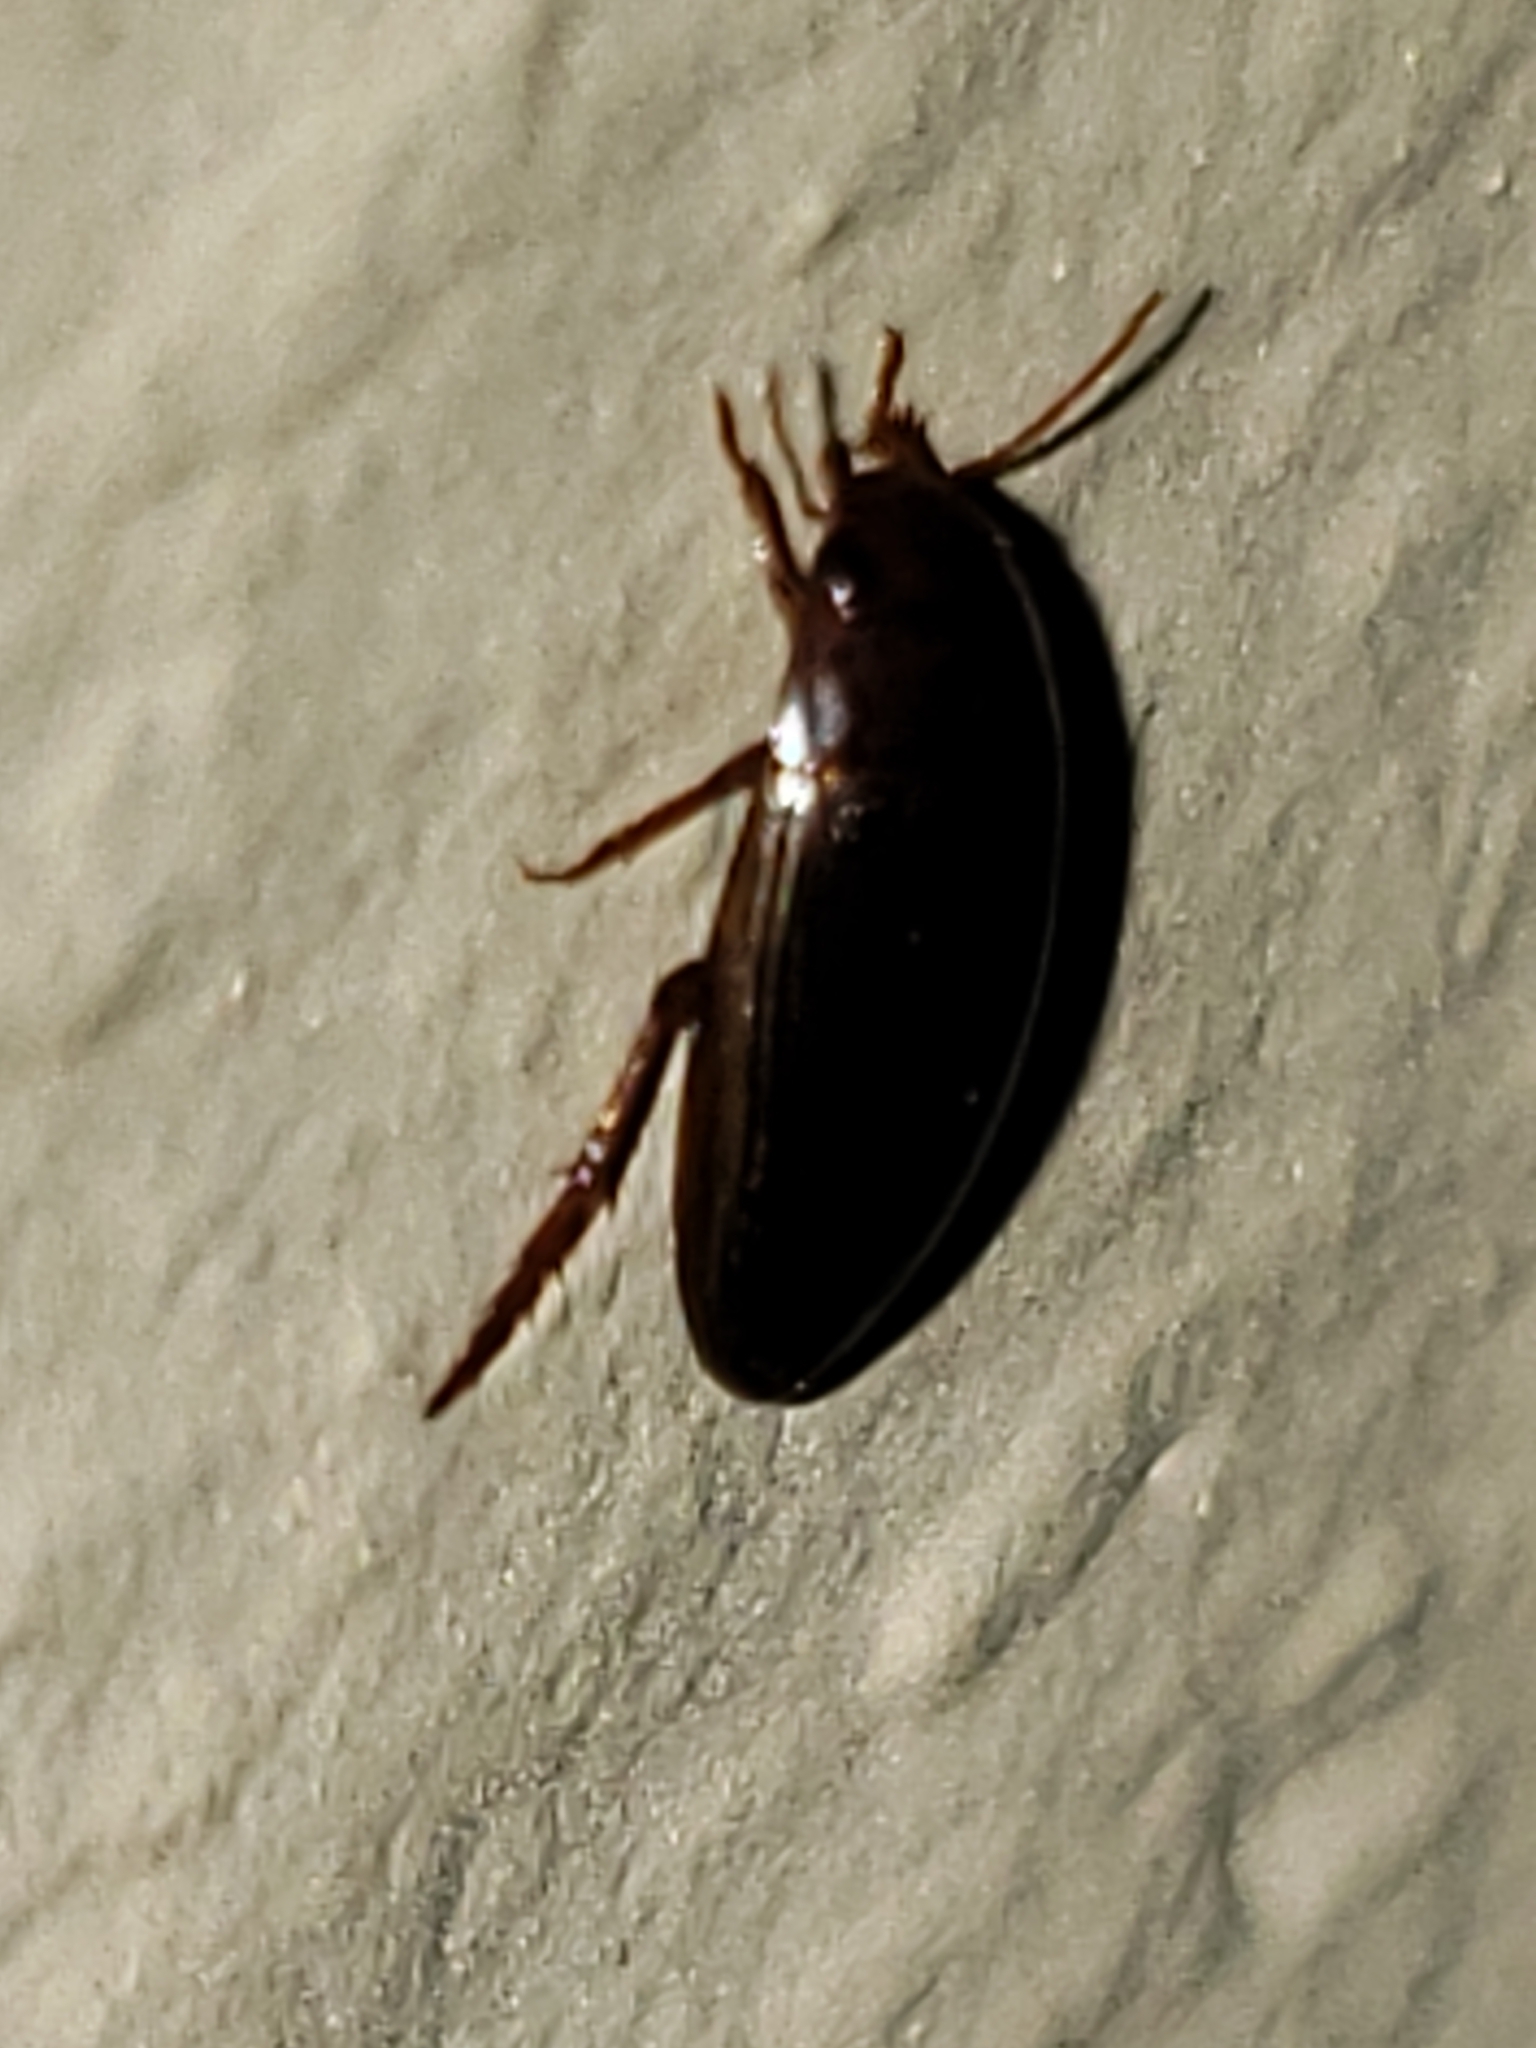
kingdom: Animalia
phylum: Arthropoda
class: Insecta
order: Coleoptera
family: Dytiscidae
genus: Copelatus
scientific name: Copelatus
